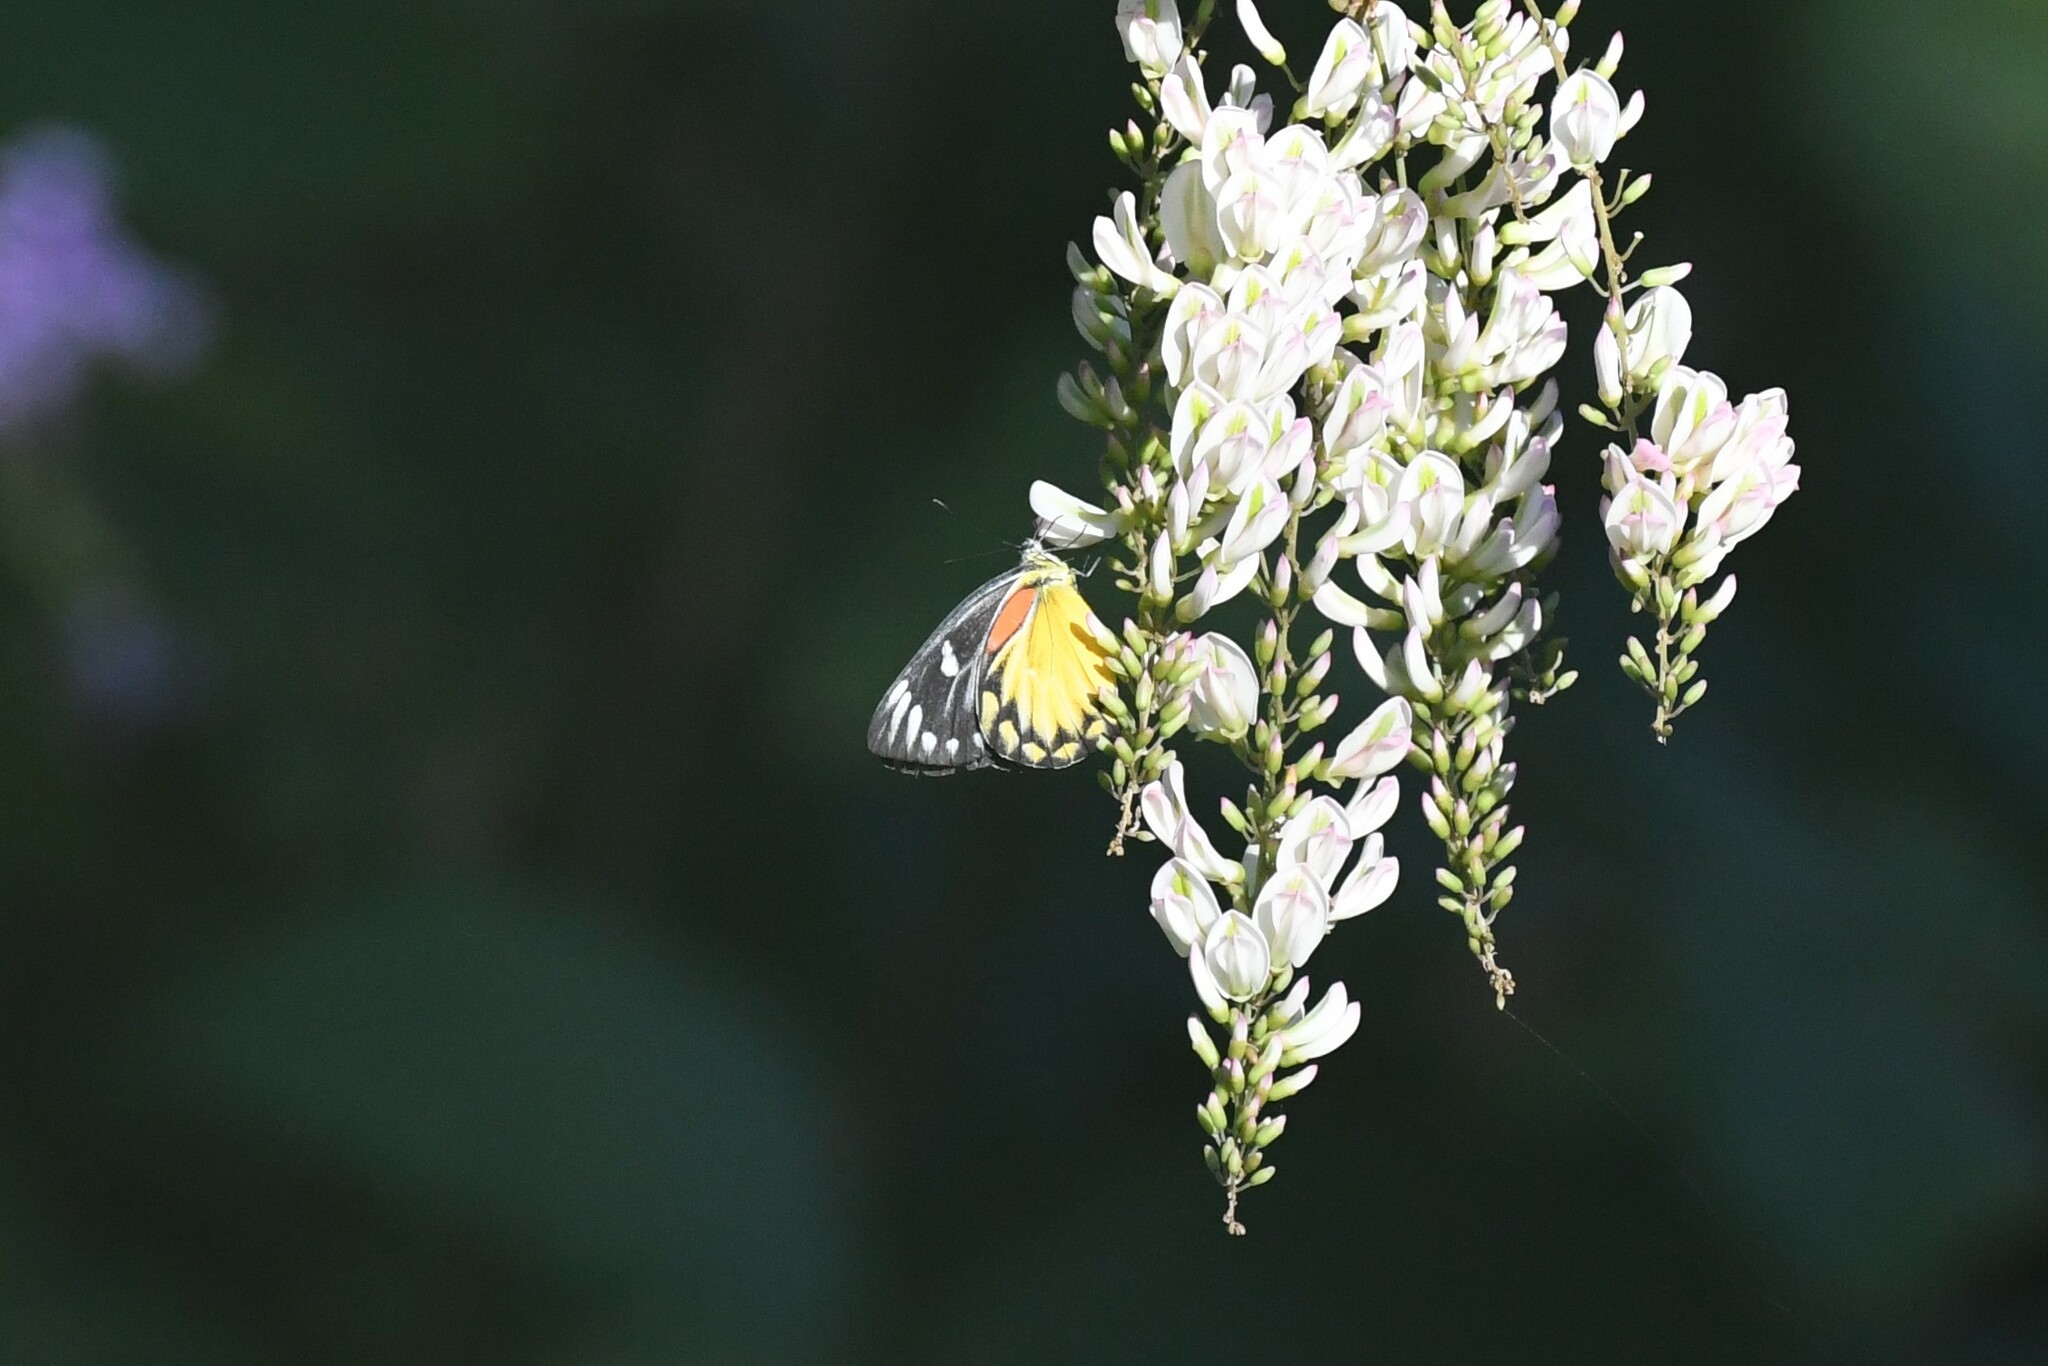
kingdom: Animalia
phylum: Arthropoda
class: Insecta
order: Lepidoptera
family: Pieridae
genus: Delias
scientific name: Delias descombesi
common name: Red-spot jezebel
